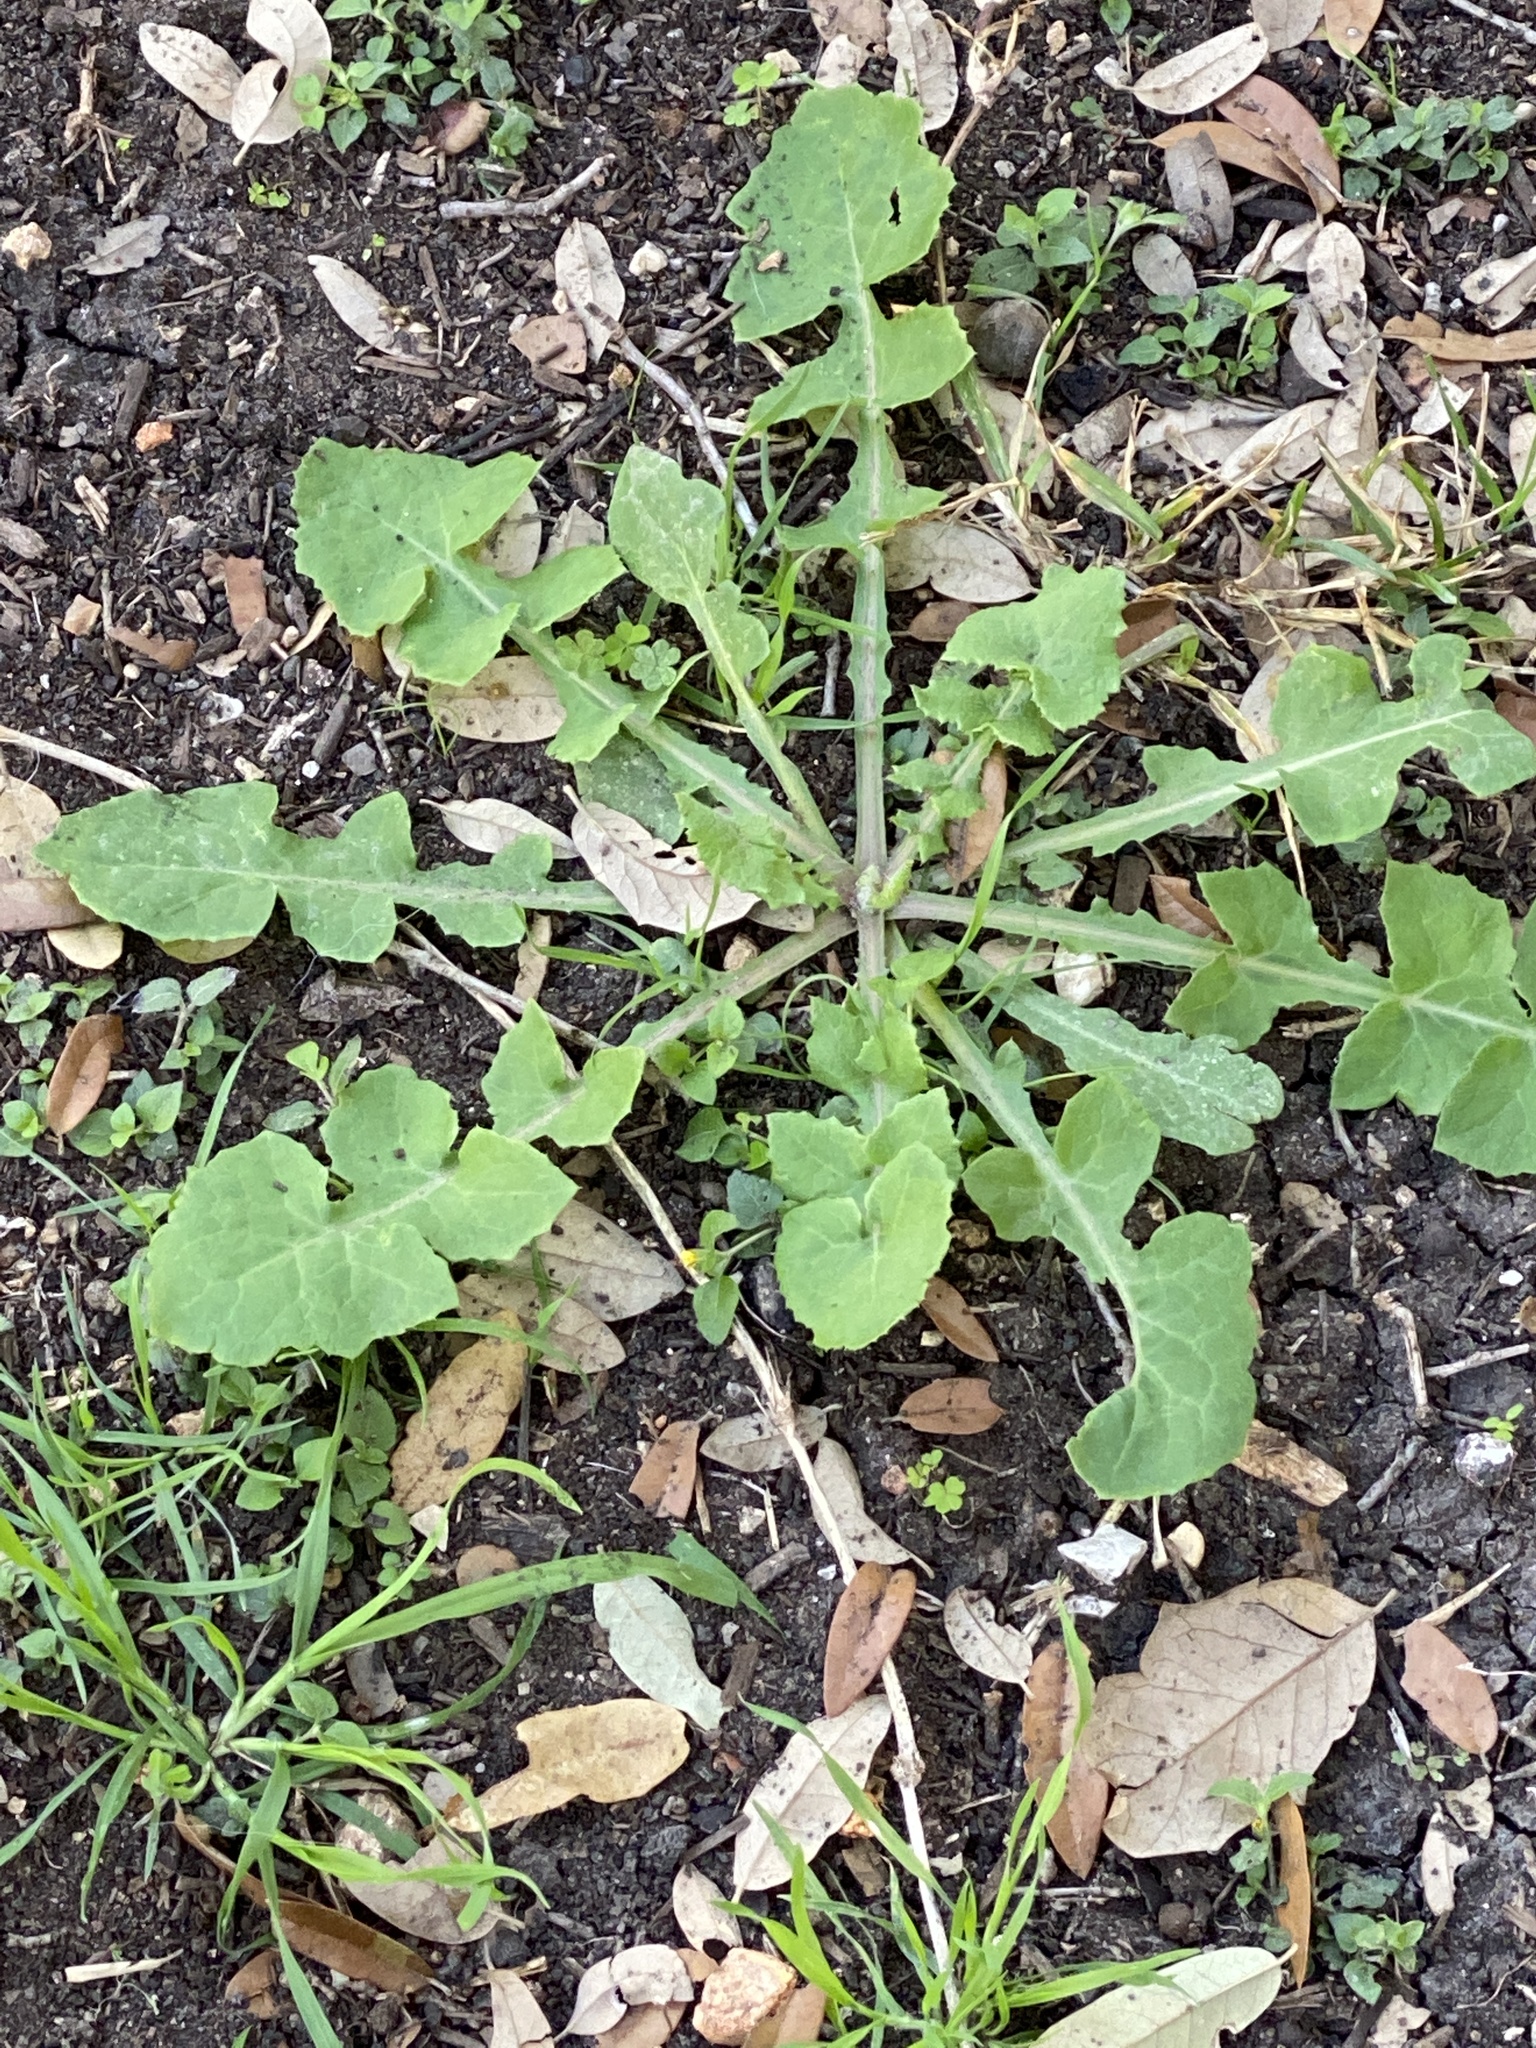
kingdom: Plantae
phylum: Tracheophyta
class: Magnoliopsida
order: Asterales
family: Asteraceae
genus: Sonchus
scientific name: Sonchus oleraceus
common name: Common sowthistle
